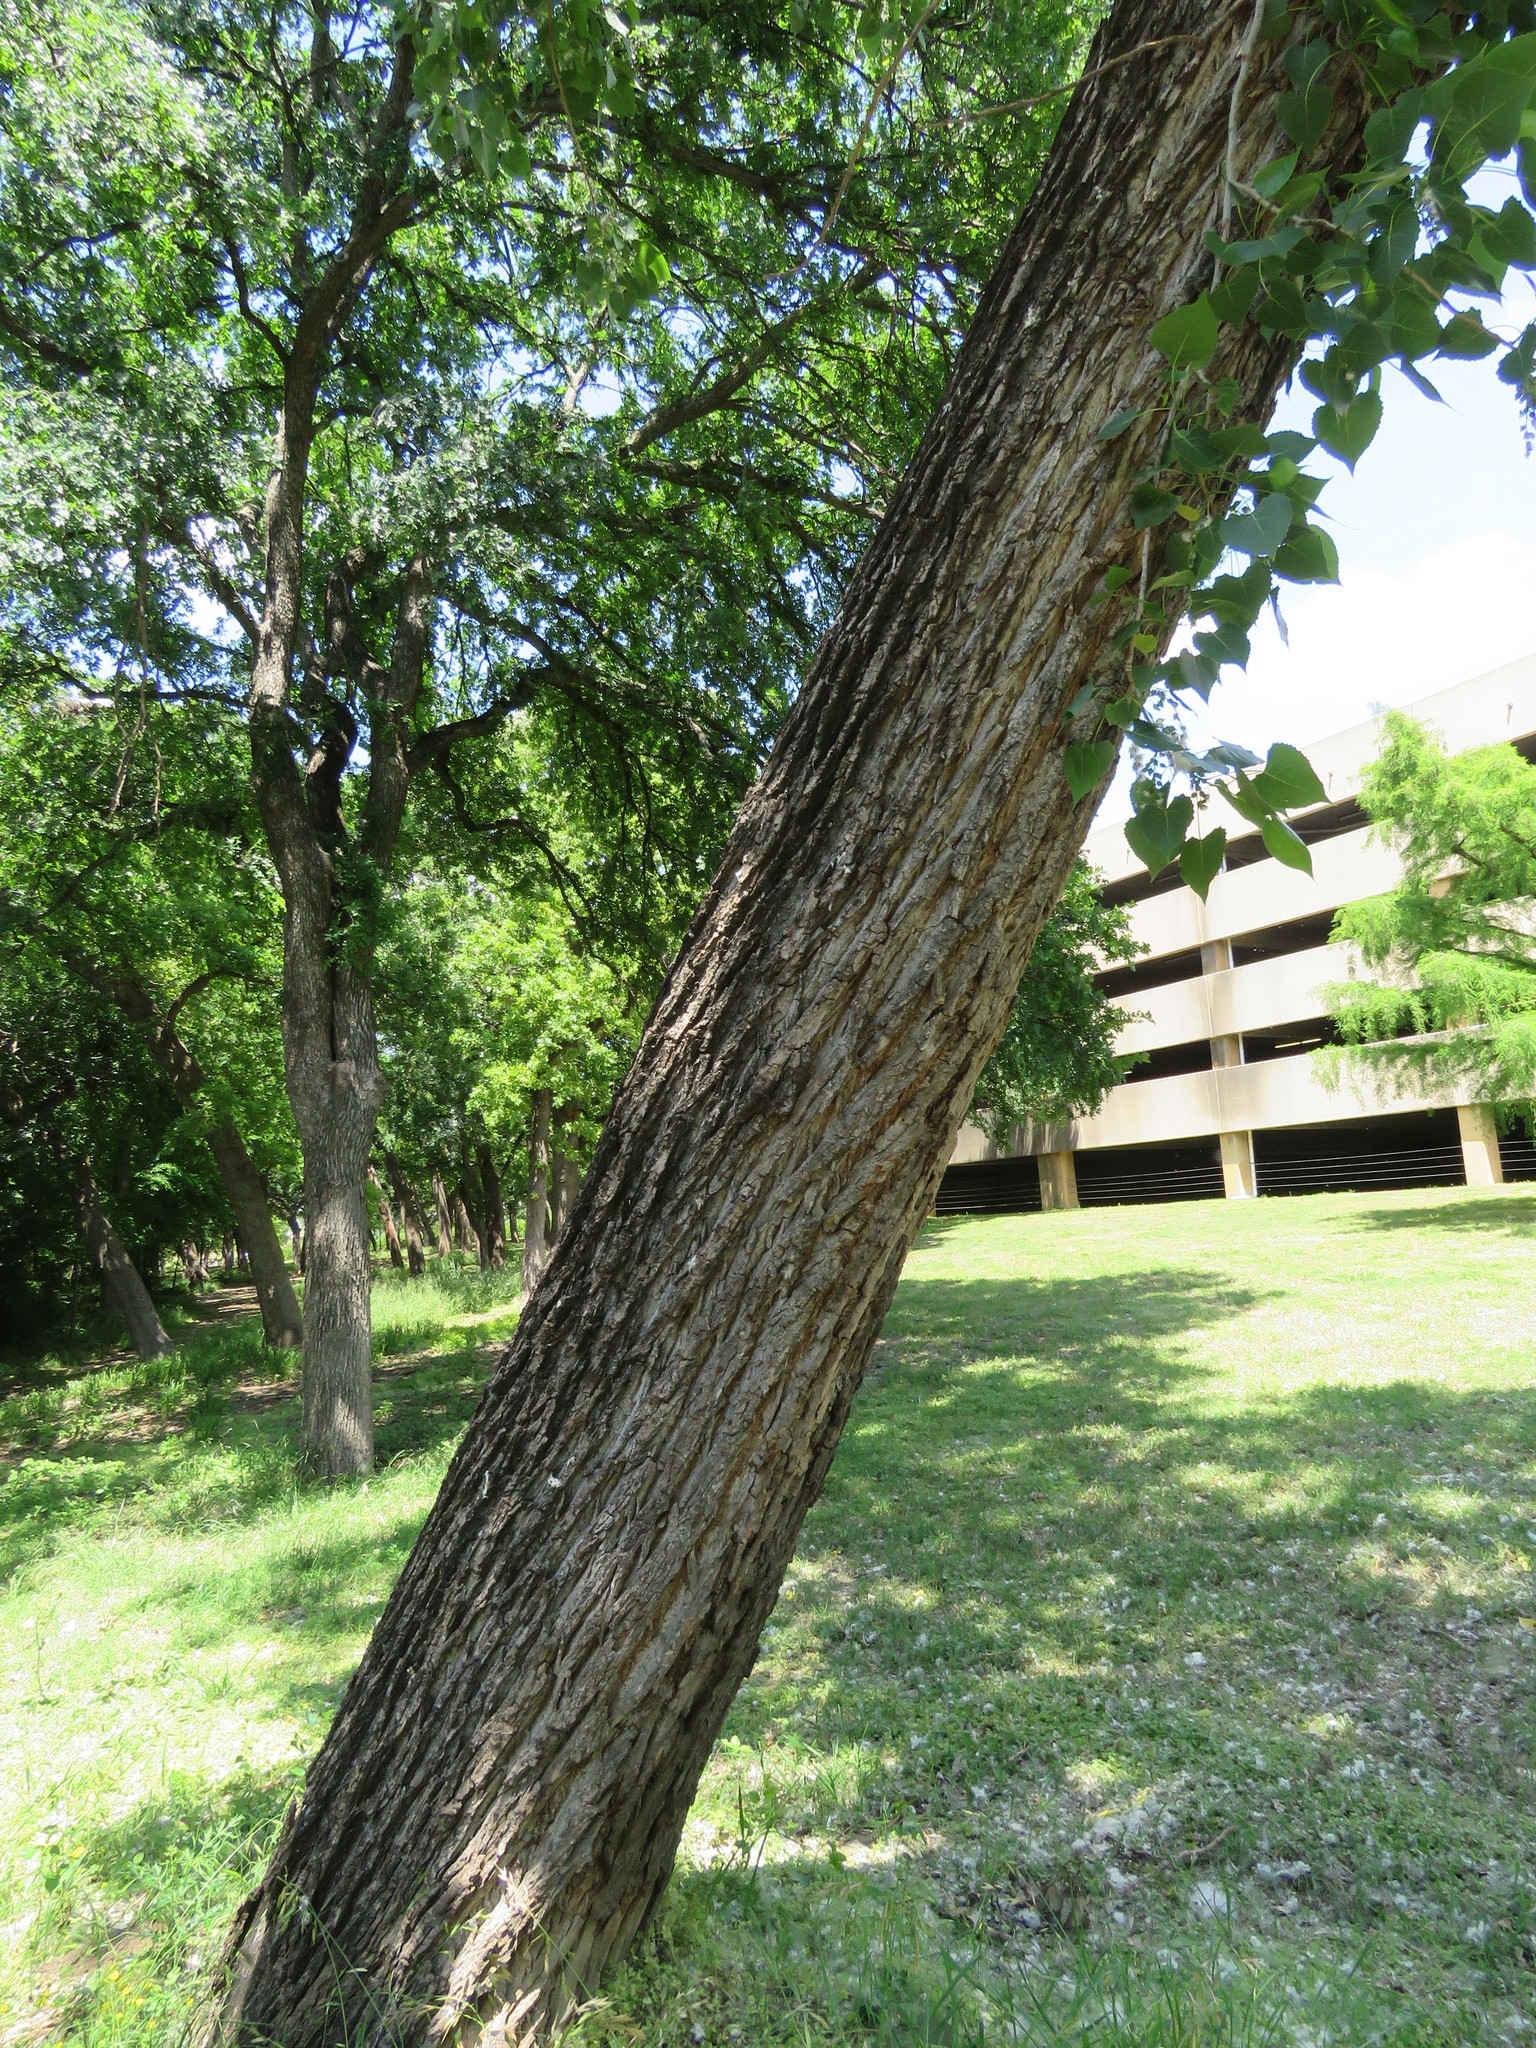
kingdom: Plantae
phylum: Tracheophyta
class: Magnoliopsida
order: Malpighiales
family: Salicaceae
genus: Populus
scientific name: Populus deltoides
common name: Eastern cottonwood
